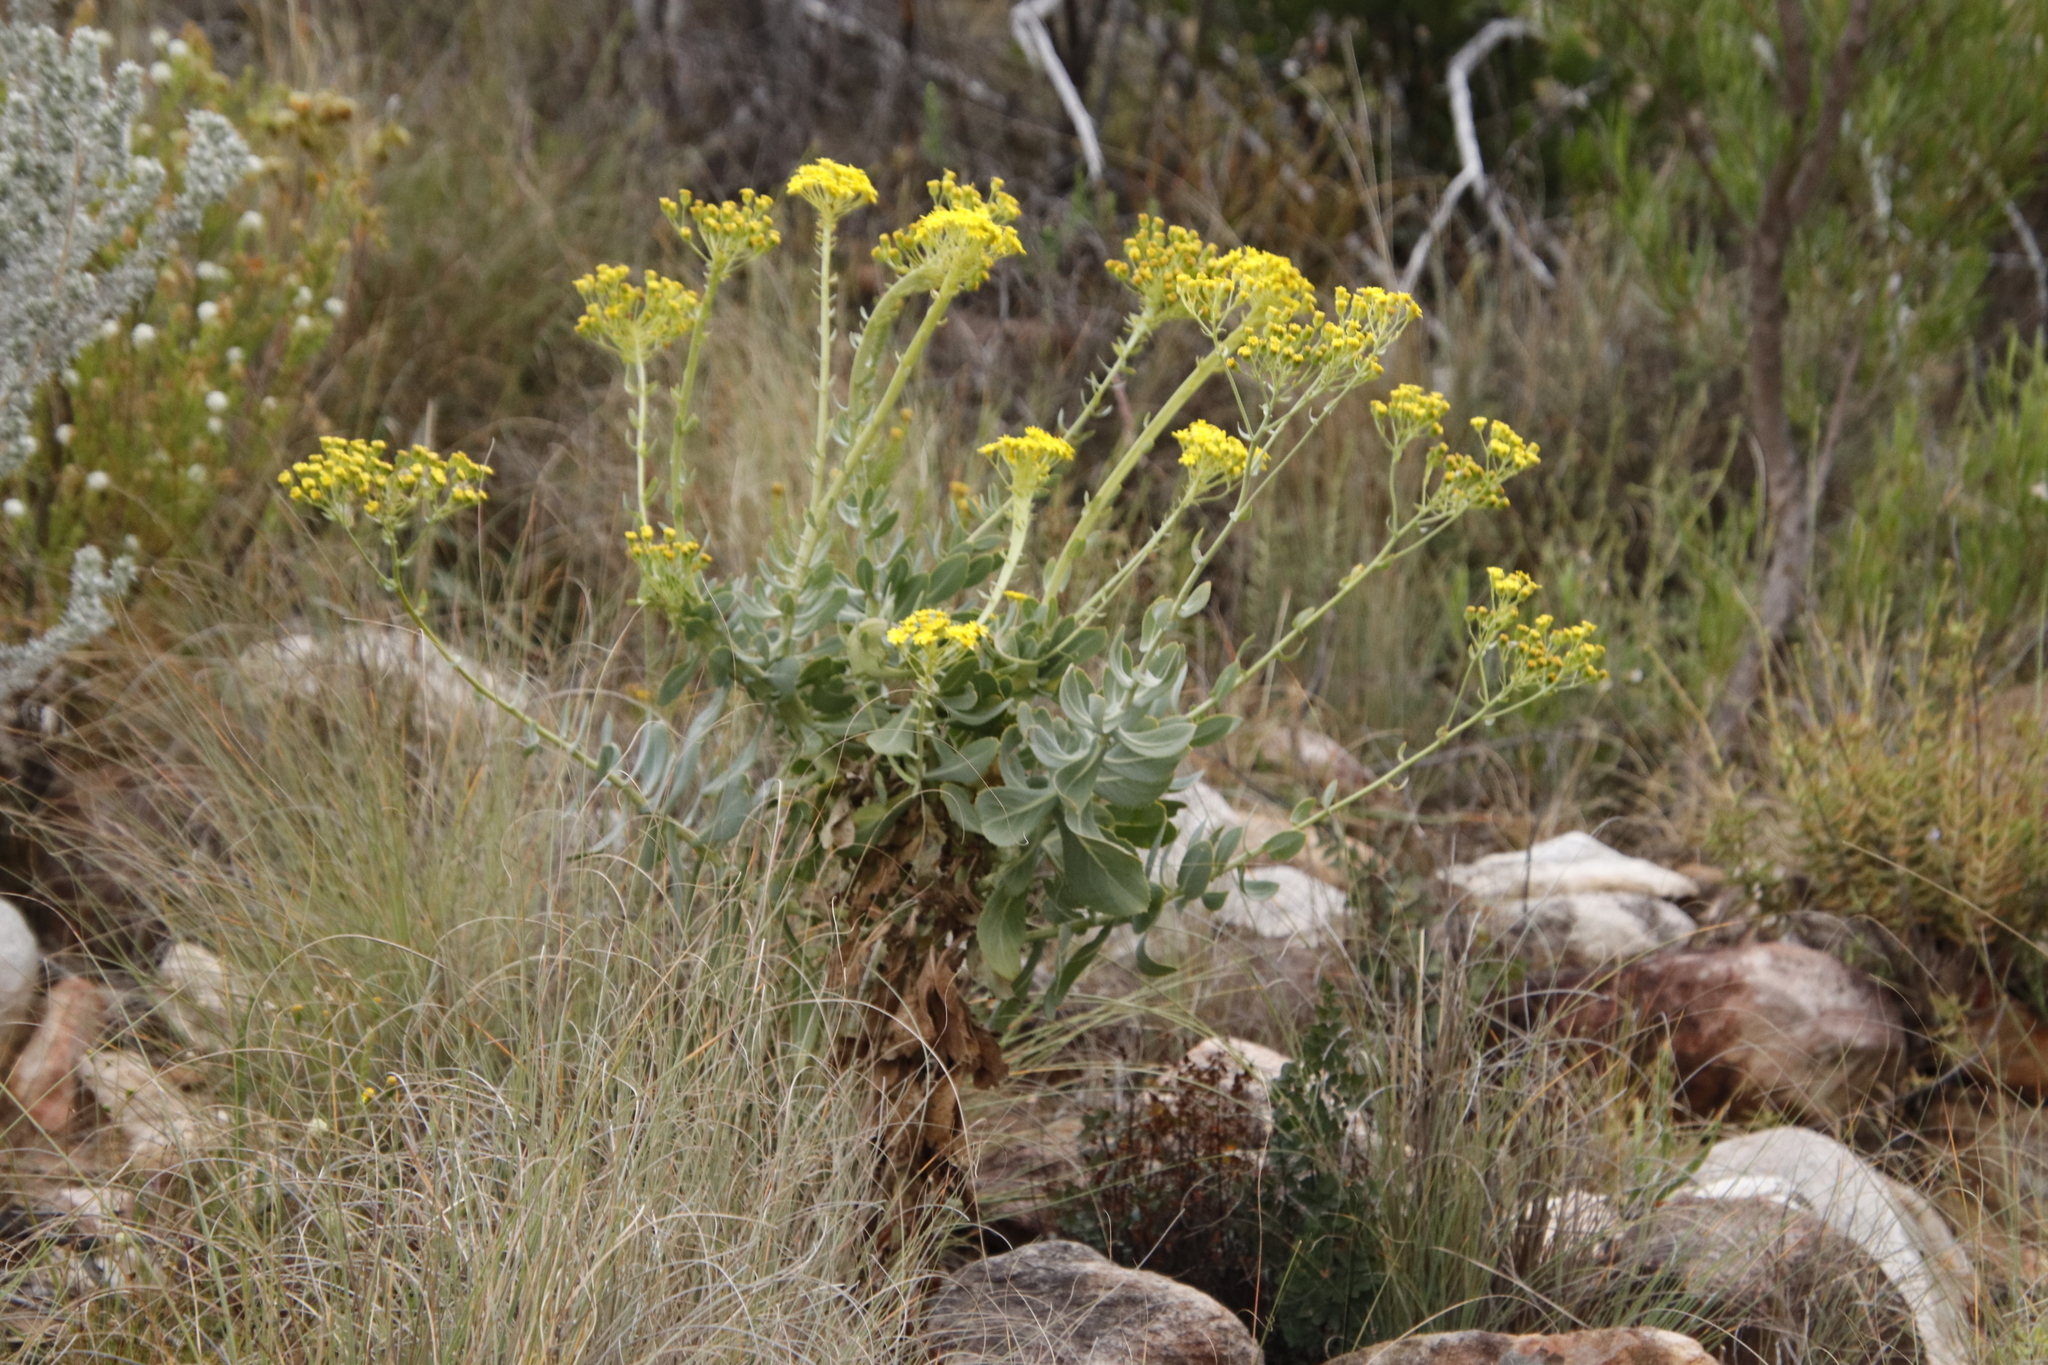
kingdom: Plantae
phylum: Tracheophyta
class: Magnoliopsida
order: Asterales
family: Asteraceae
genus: Othonna
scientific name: Othonna parviflora
